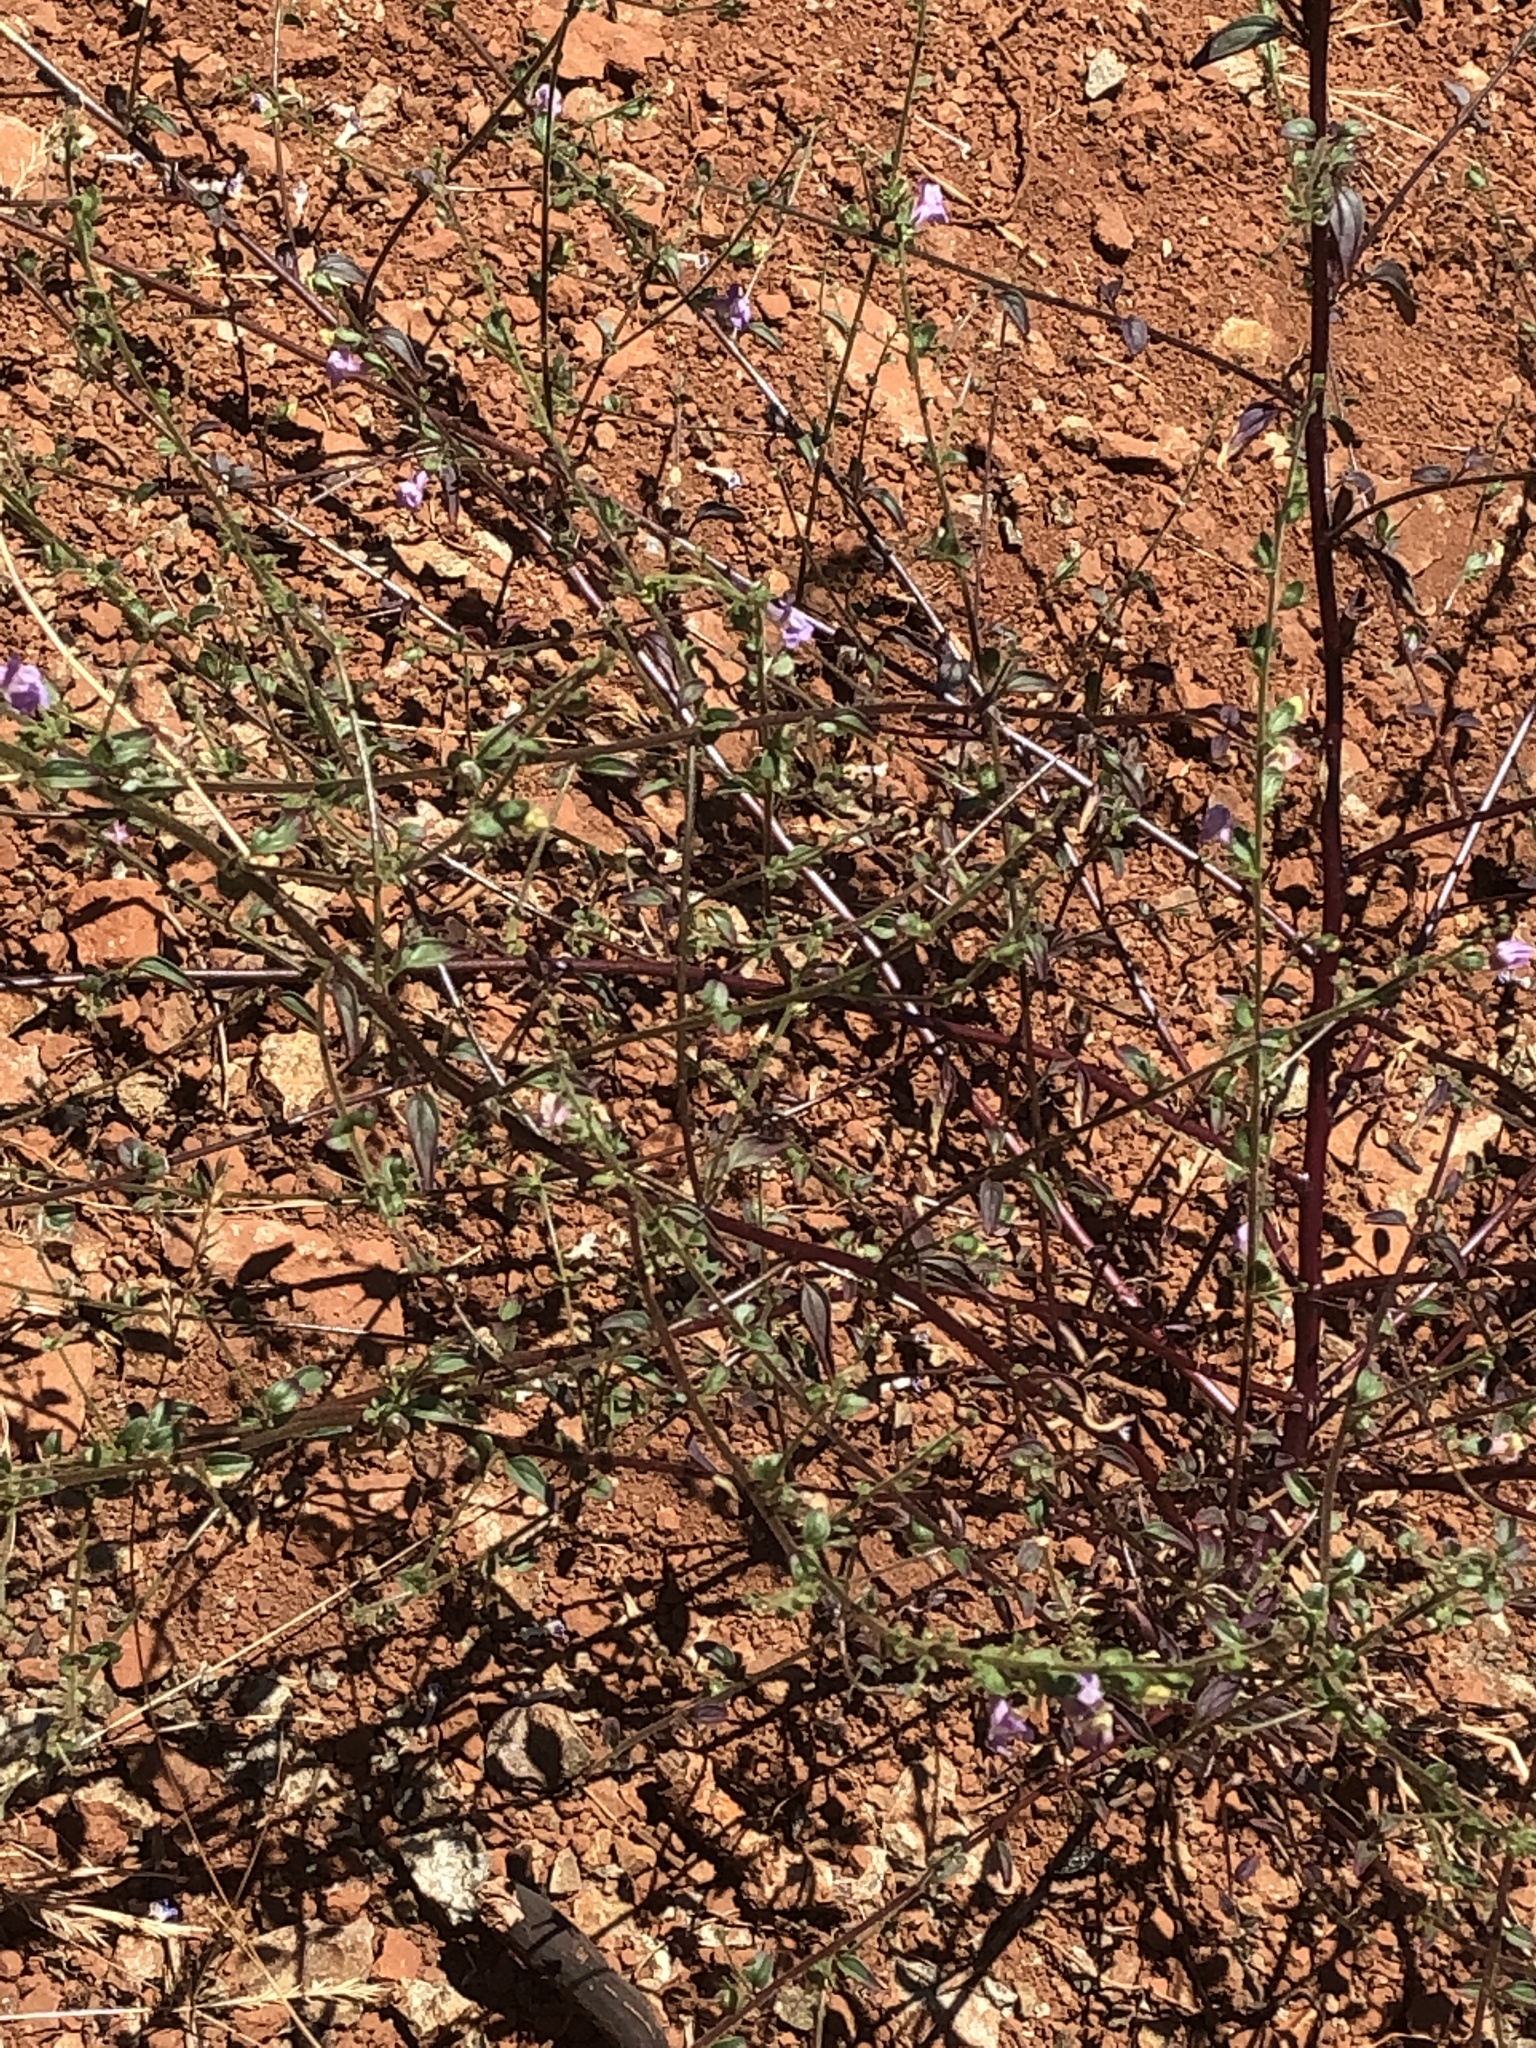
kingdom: Plantae
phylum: Tracheophyta
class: Magnoliopsida
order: Lamiales
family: Plantaginaceae
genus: Sairocarpus
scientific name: Sairocarpus vexillocalyculatus
